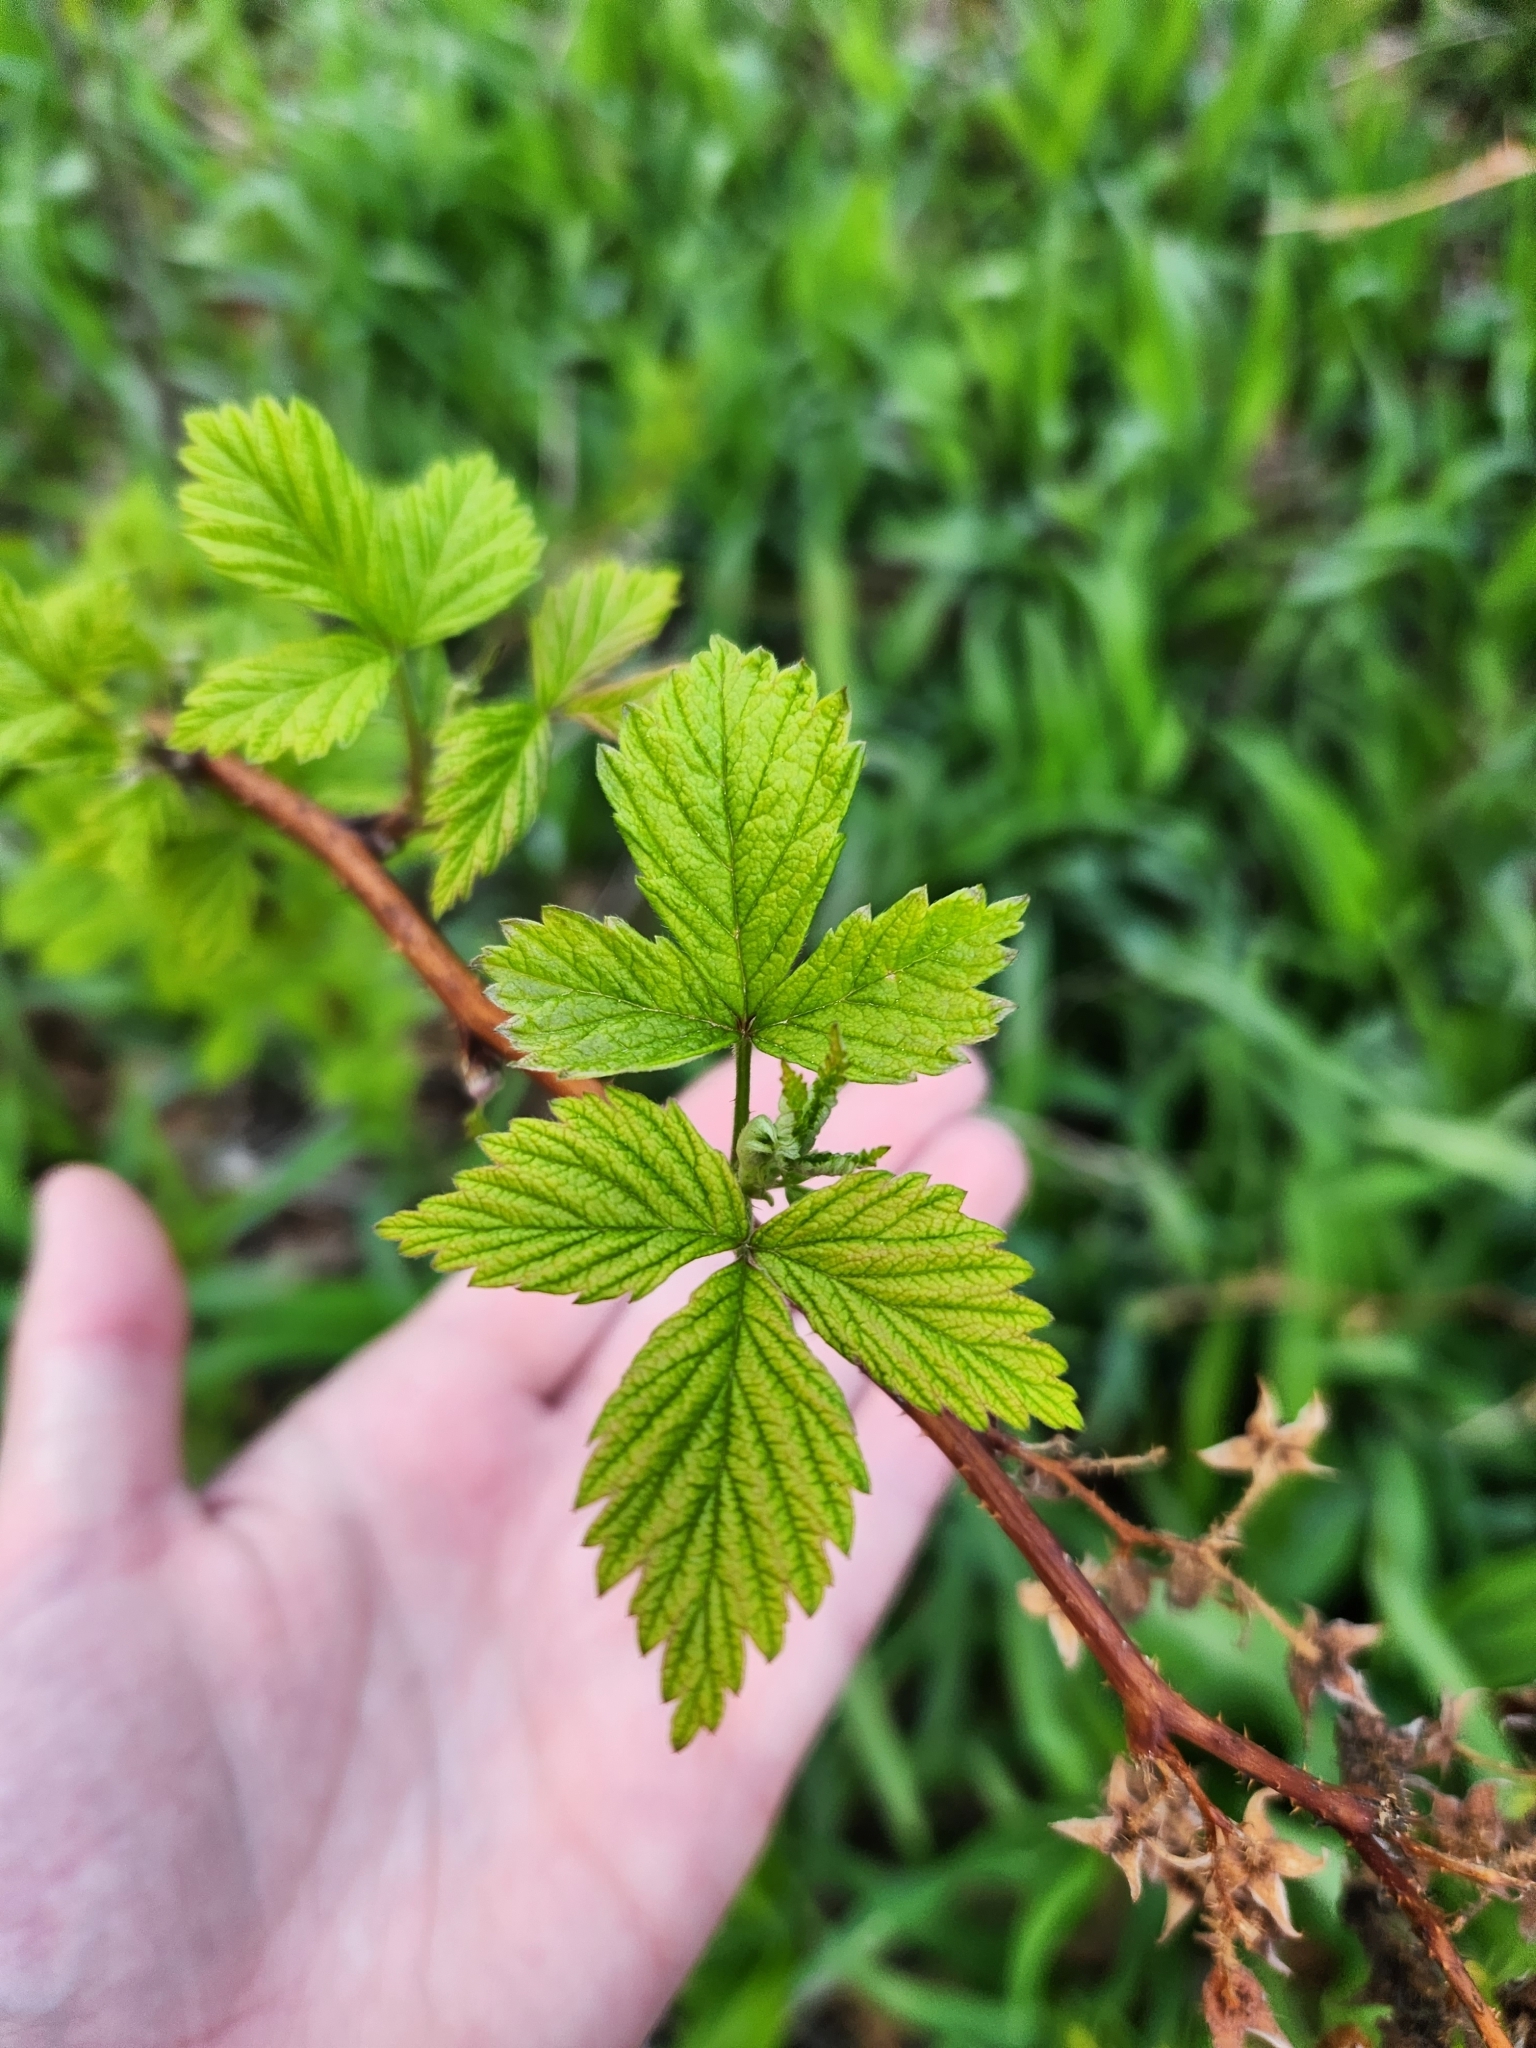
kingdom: Plantae
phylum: Tracheophyta
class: Magnoliopsida
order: Rosales
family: Rosaceae
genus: Rubus
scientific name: Rubus occidentalis
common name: Black raspberry
